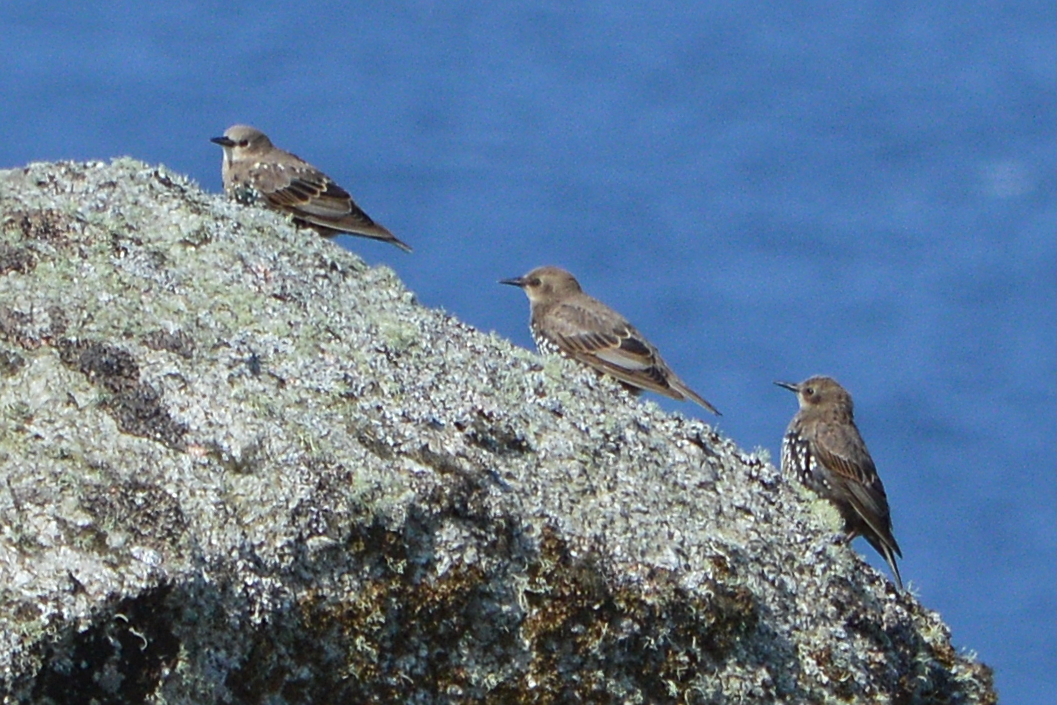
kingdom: Animalia
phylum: Chordata
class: Aves
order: Passeriformes
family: Sturnidae
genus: Sturnus
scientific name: Sturnus vulgaris
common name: Common starling
